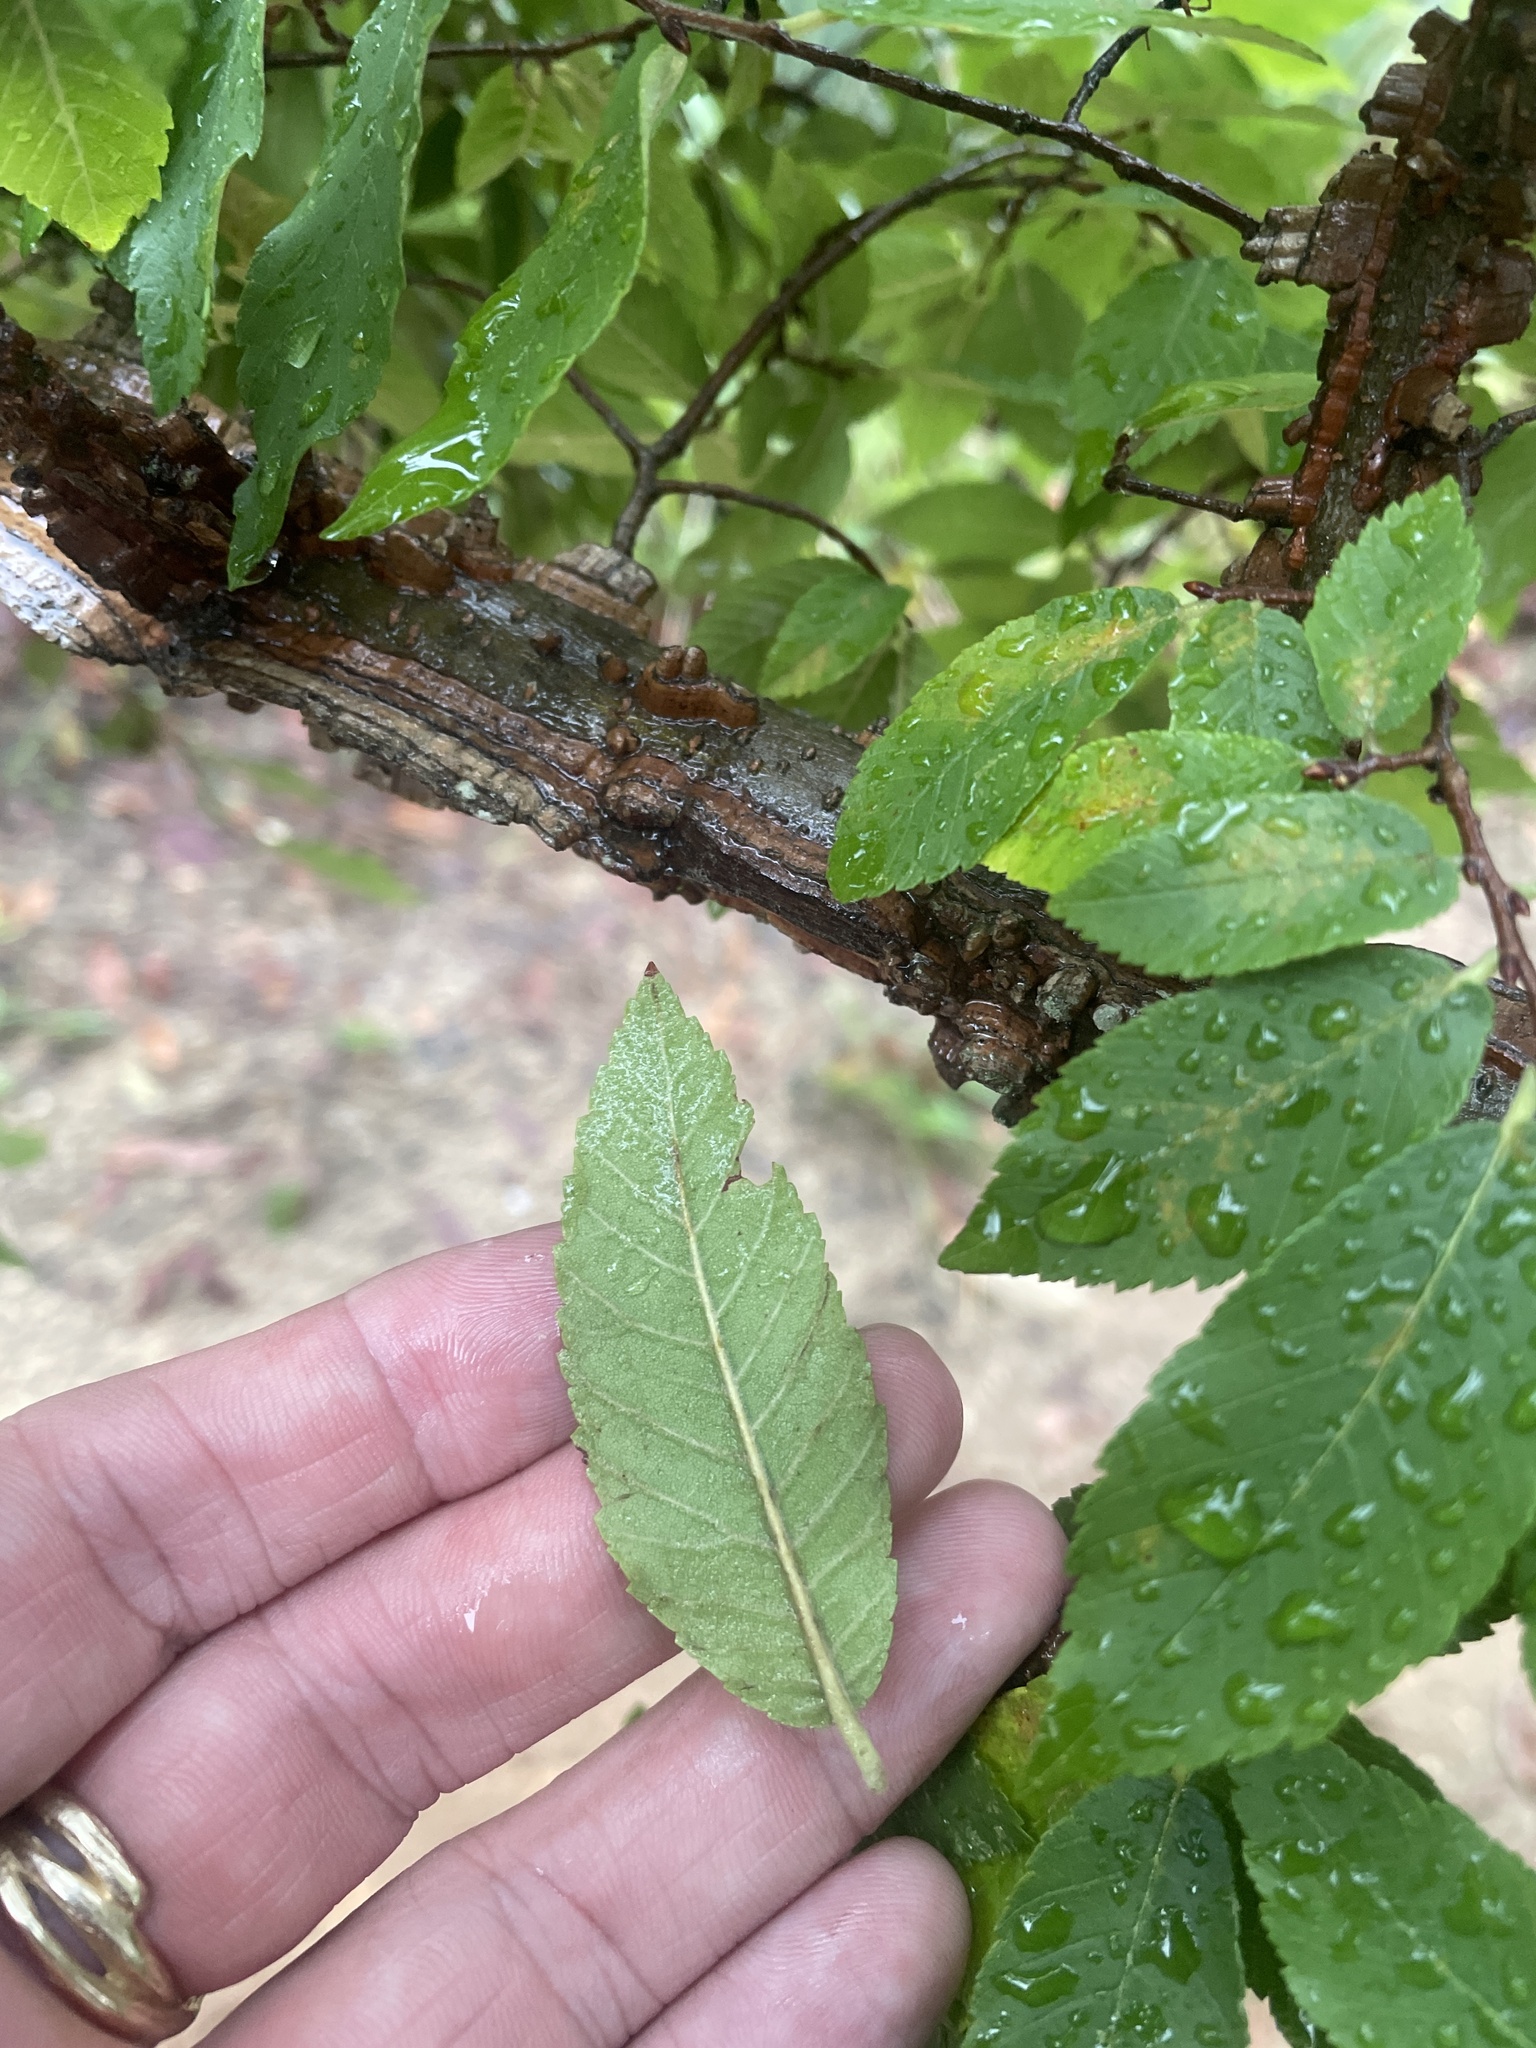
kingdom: Plantae
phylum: Tracheophyta
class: Magnoliopsida
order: Rosales
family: Ulmaceae
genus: Ulmus
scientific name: Ulmus alata
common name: Winged elm
